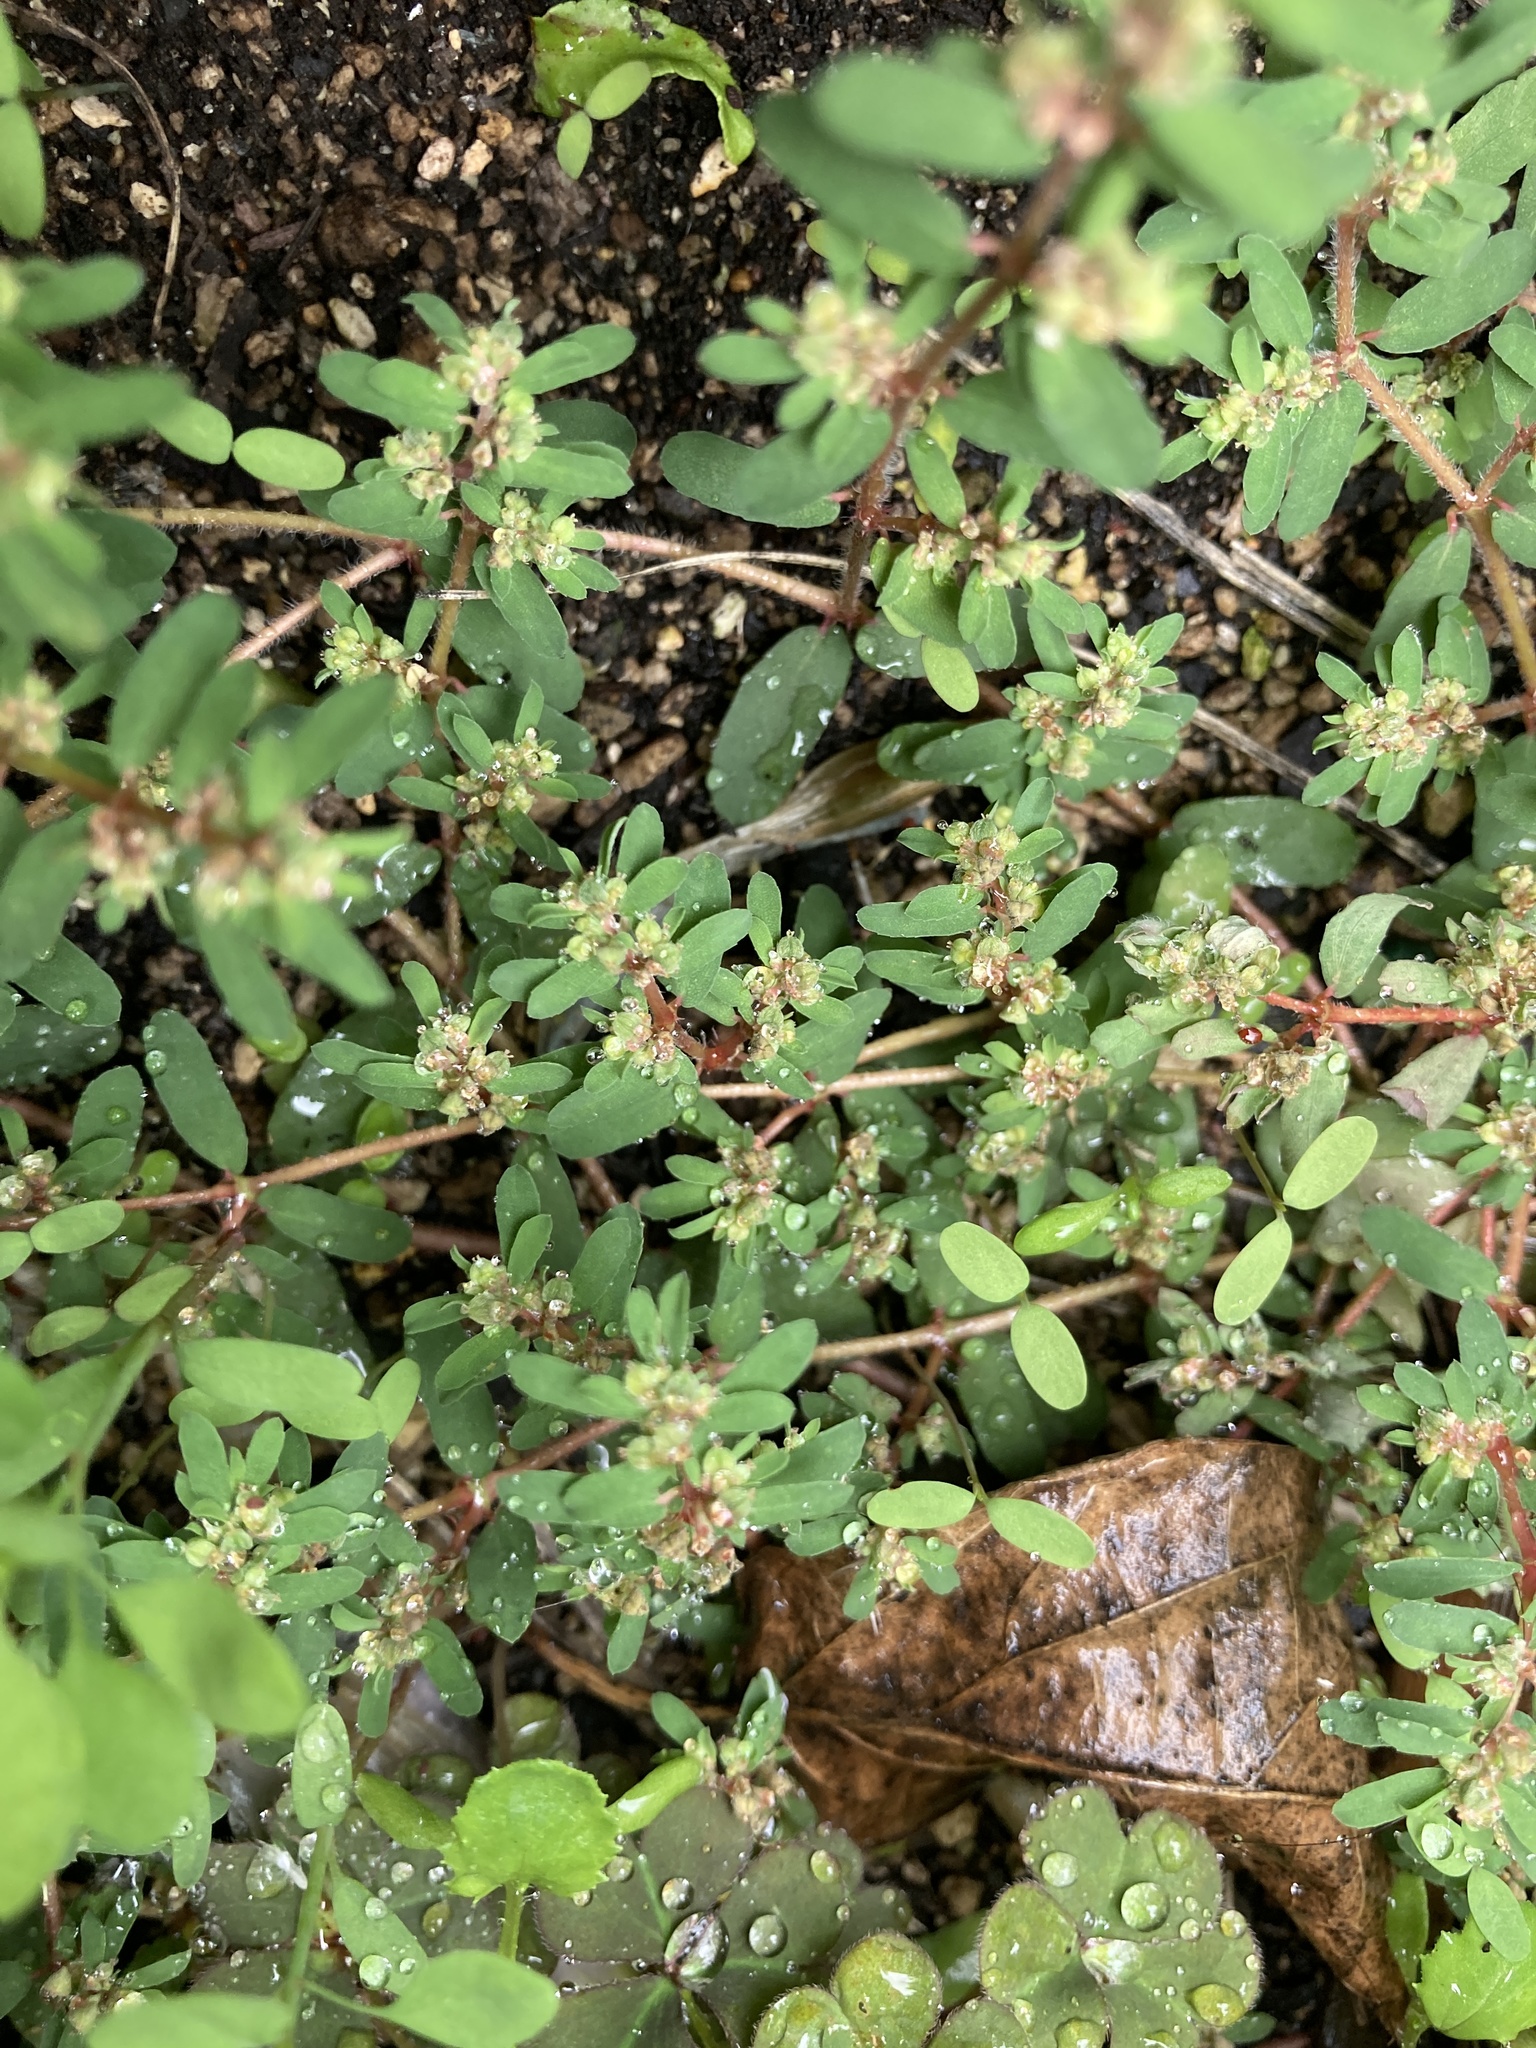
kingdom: Plantae
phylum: Tracheophyta
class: Magnoliopsida
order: Malpighiales
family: Euphorbiaceae
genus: Euphorbia
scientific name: Euphorbia maculata
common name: Spotted spurge
